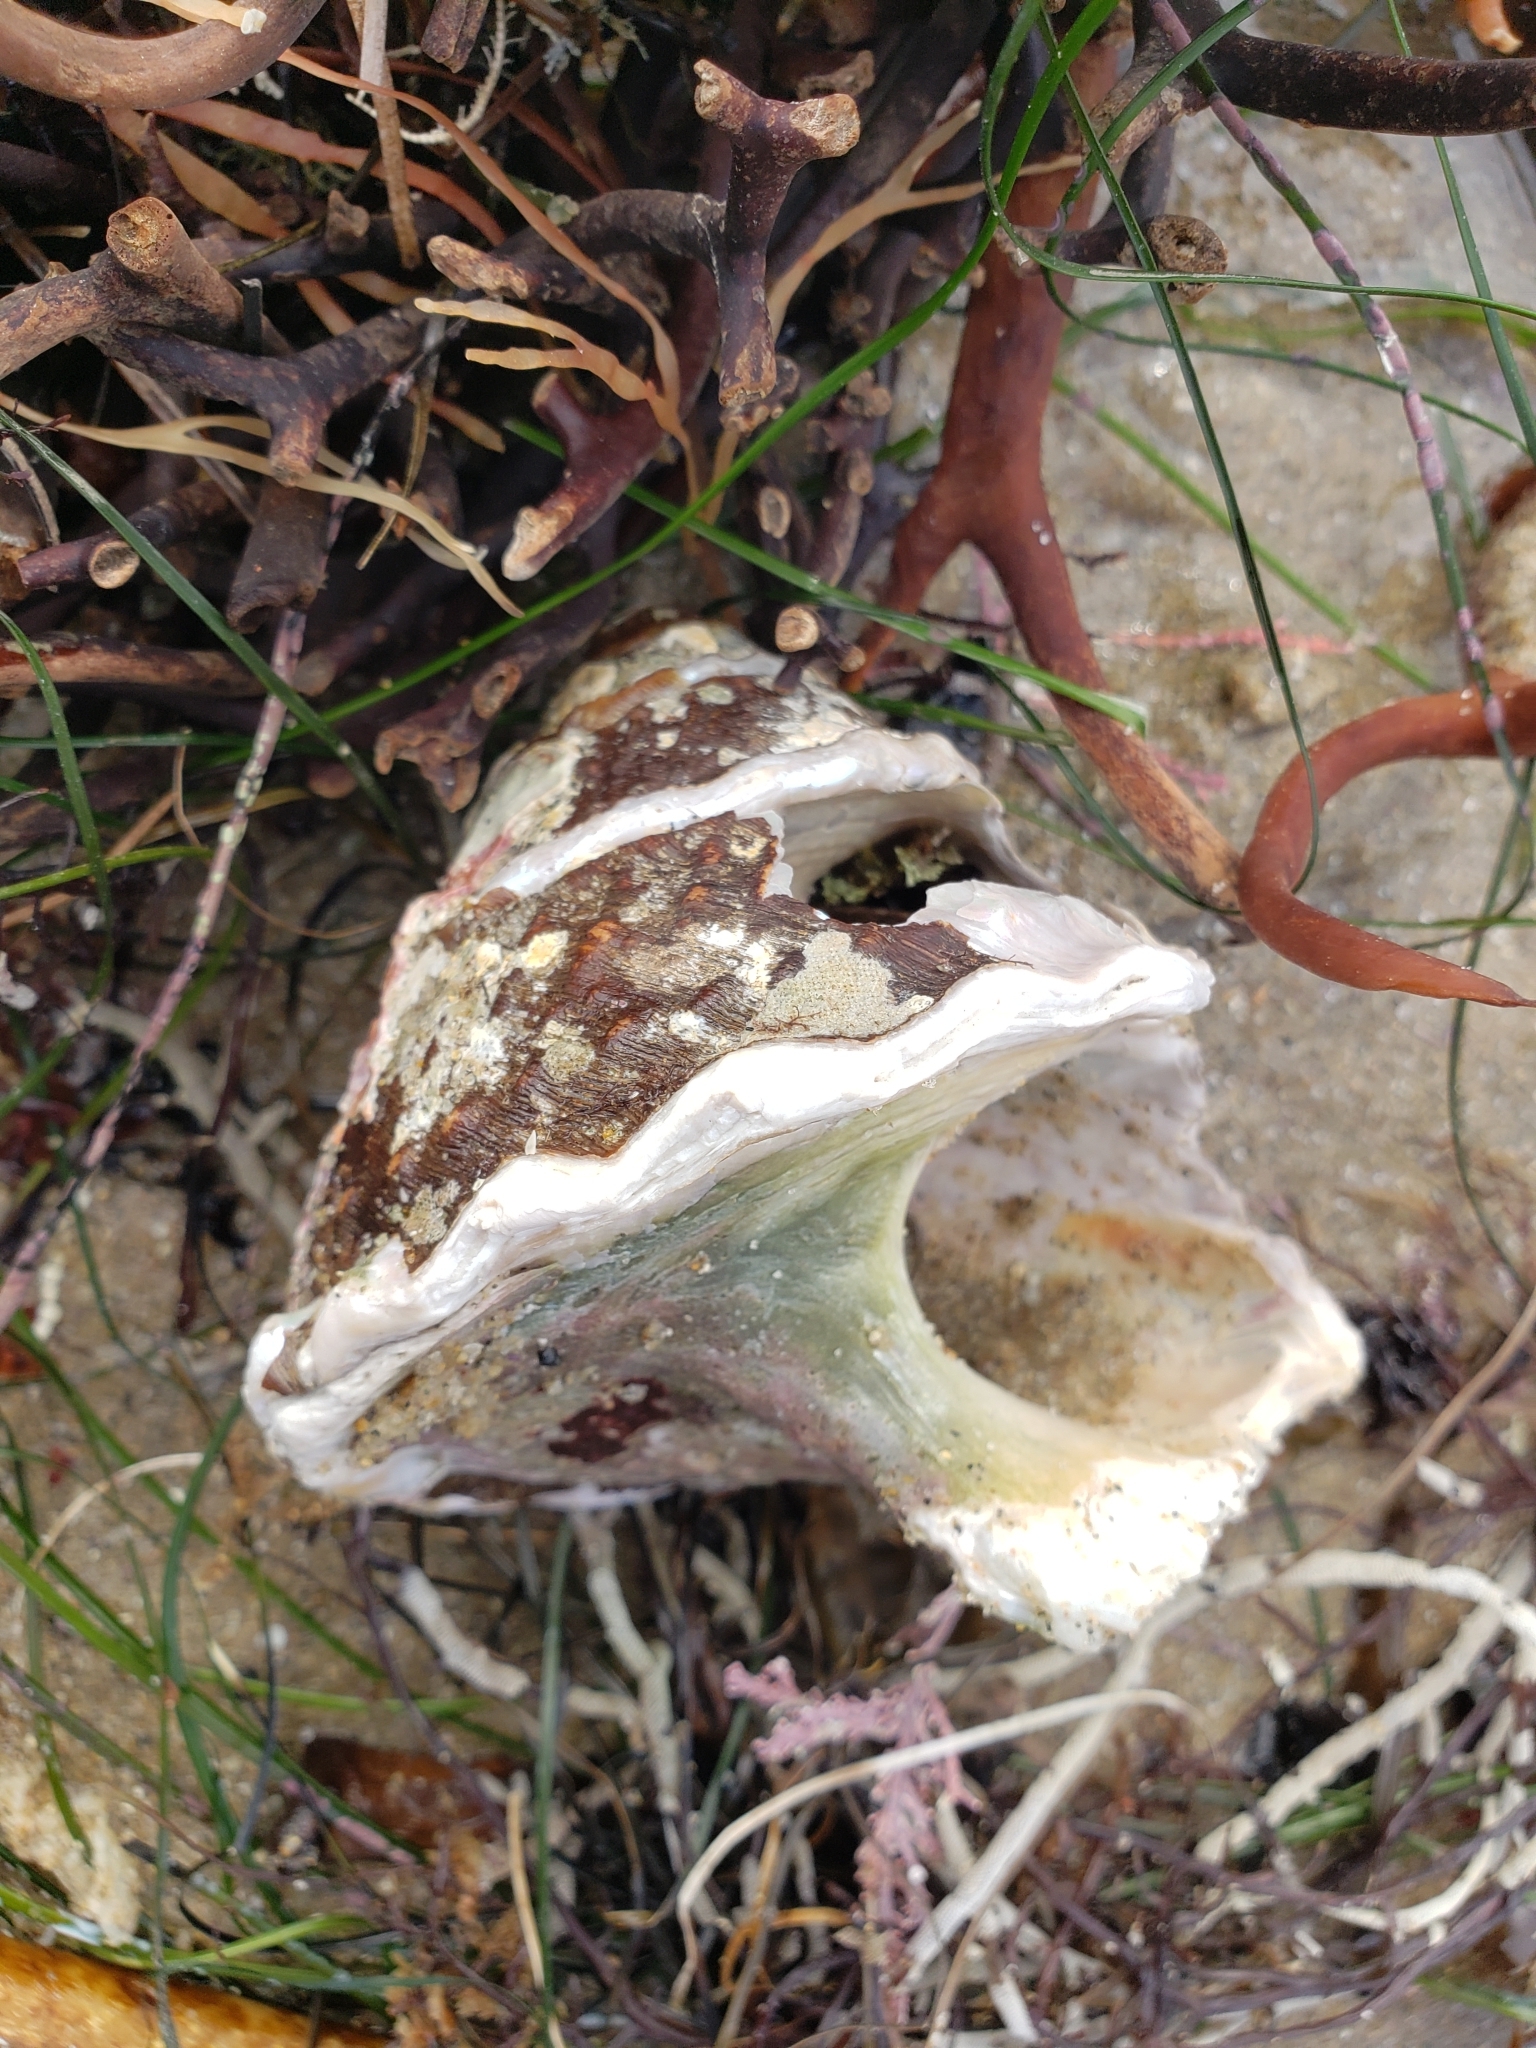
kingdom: Animalia
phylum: Mollusca
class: Gastropoda
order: Trochida
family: Turbinidae
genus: Megastraea
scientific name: Megastraea undosa
